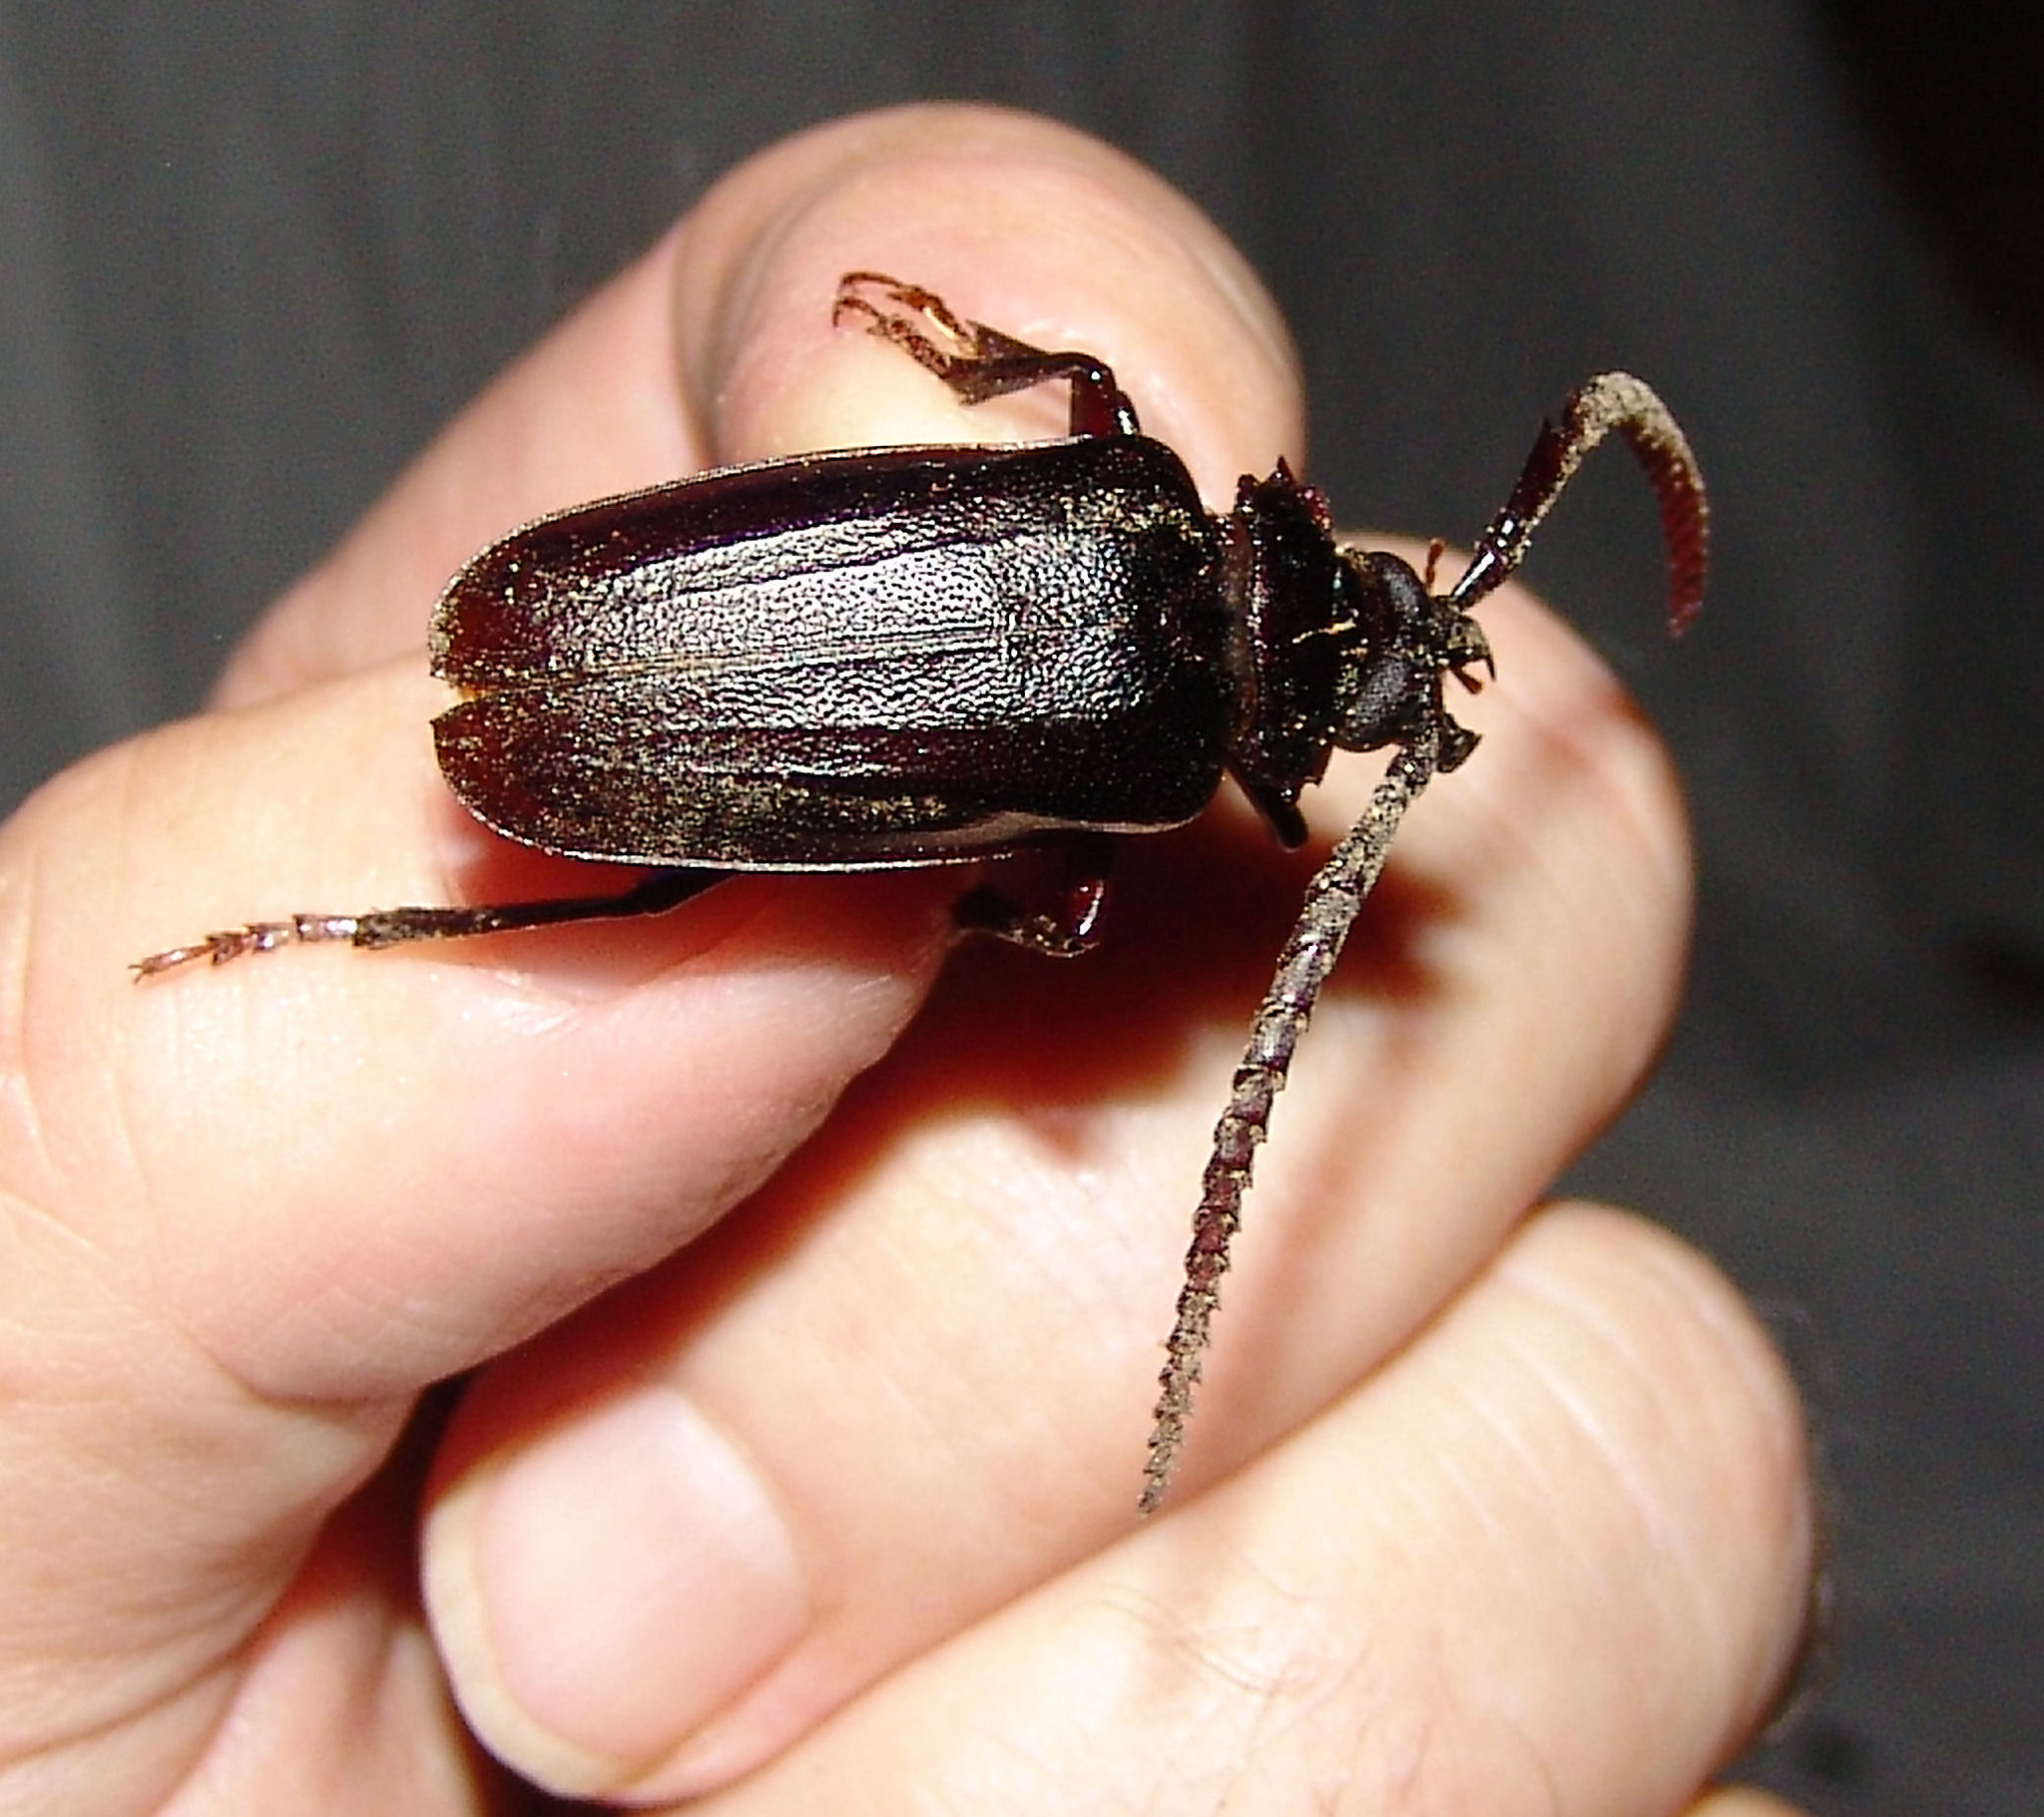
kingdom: Animalia
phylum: Arthropoda
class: Insecta
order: Coleoptera
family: Cerambycidae
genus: Prionus
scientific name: Prionus imbricornis
